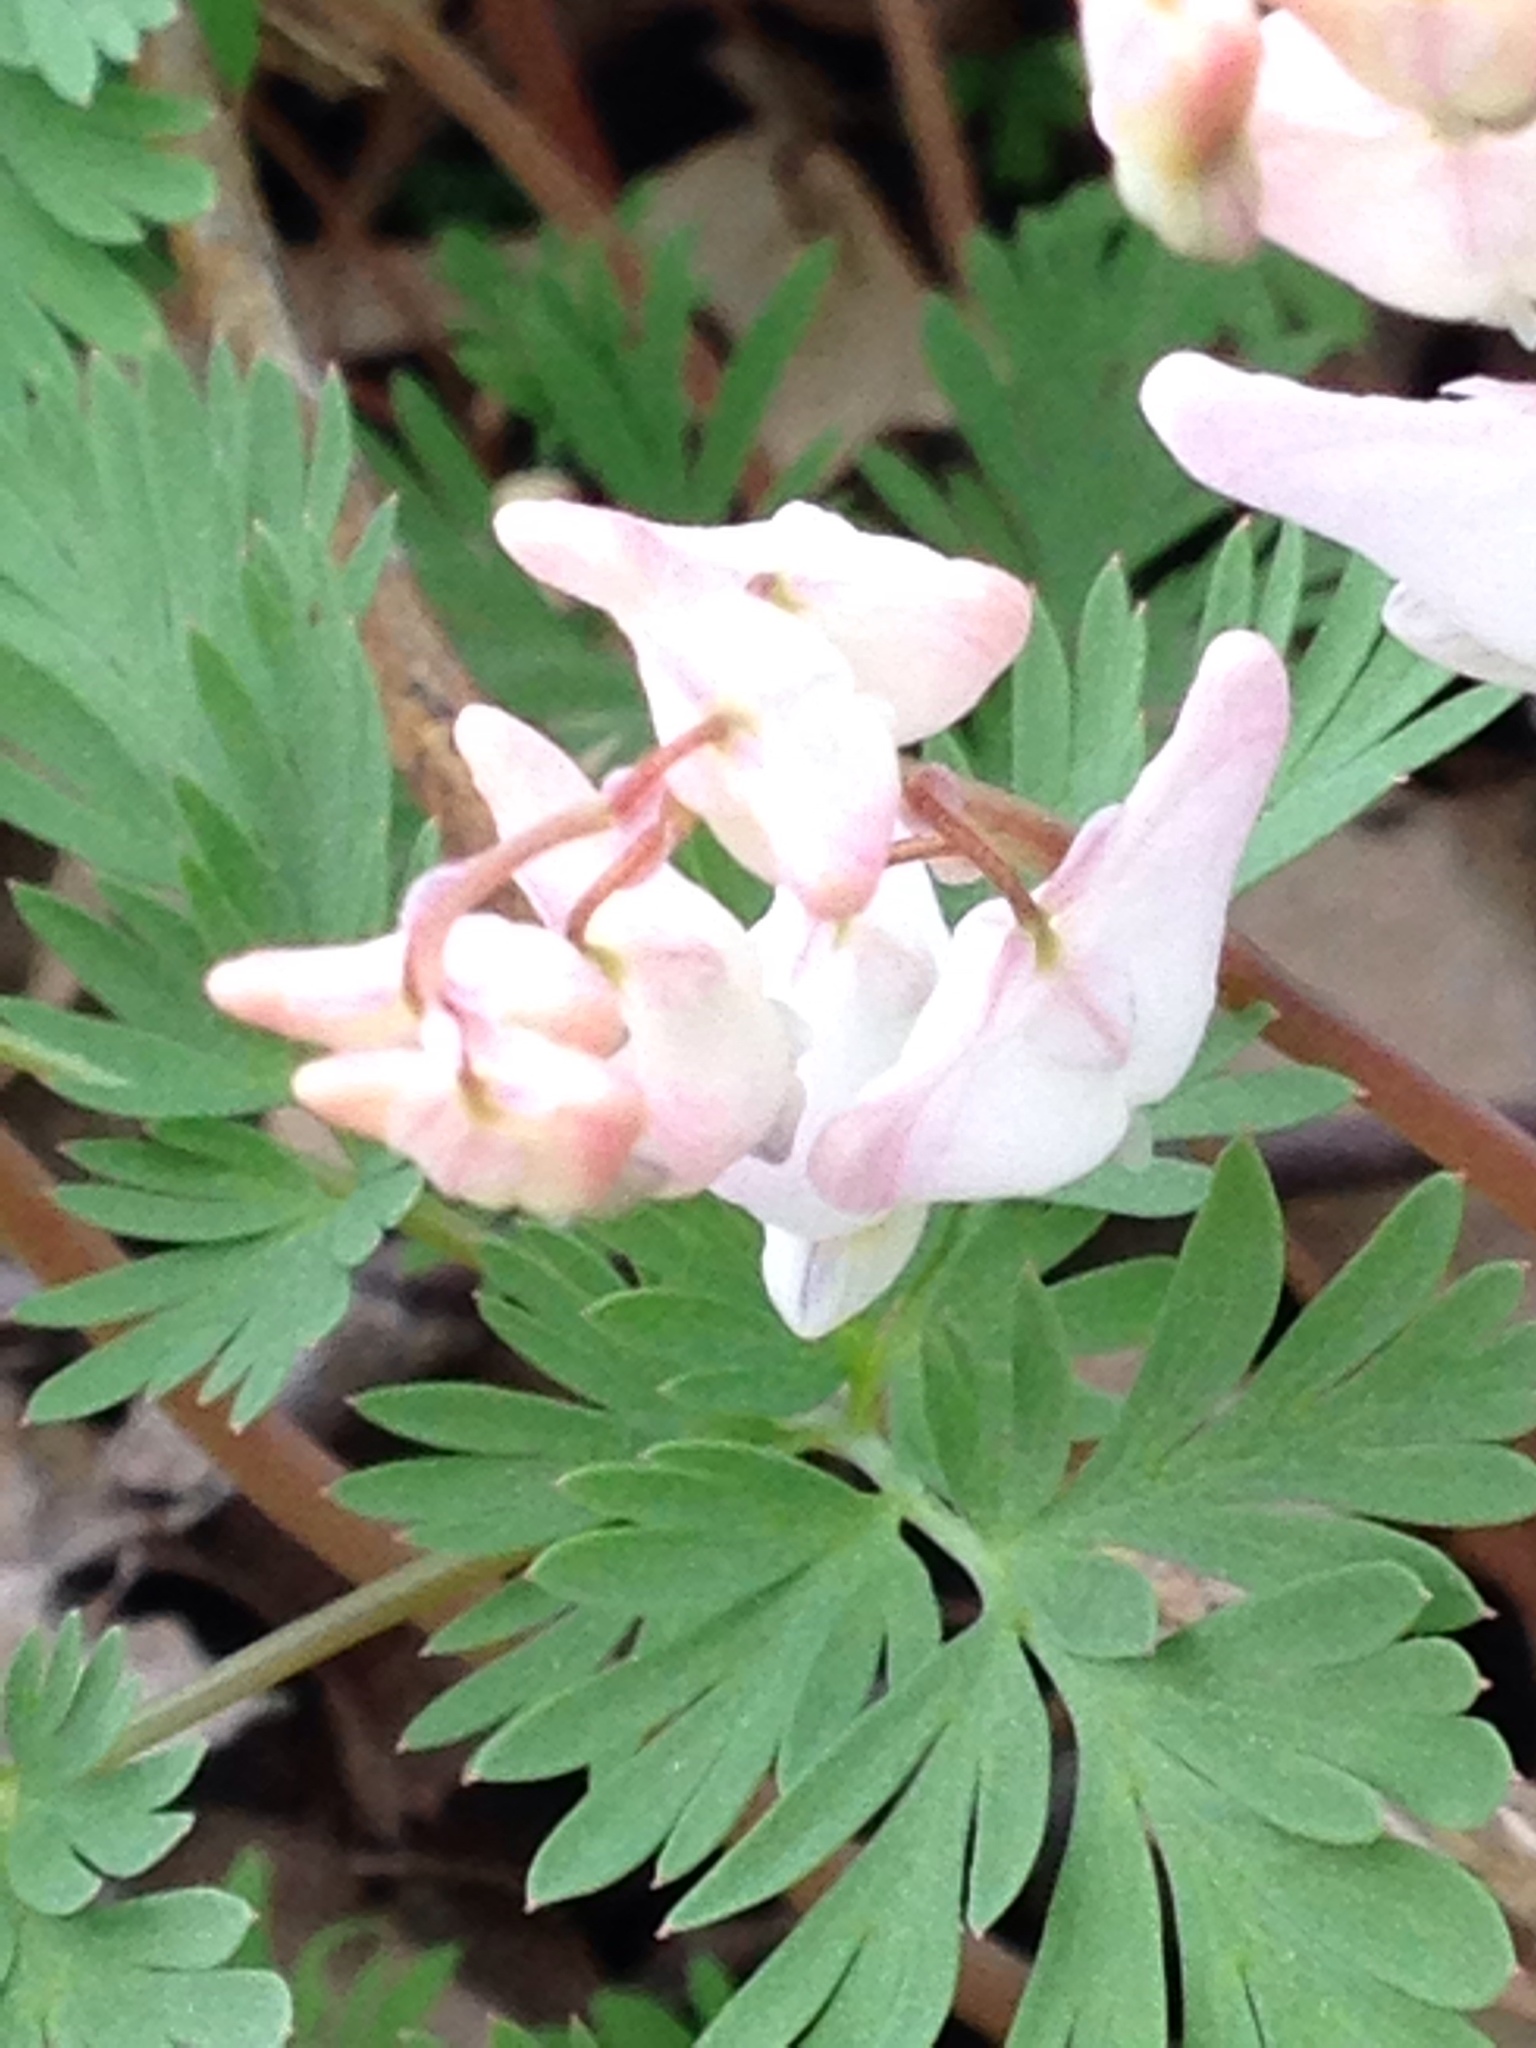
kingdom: Plantae
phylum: Tracheophyta
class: Magnoliopsida
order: Ranunculales
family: Papaveraceae
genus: Dicentra
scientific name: Dicentra cucullaria
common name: Dutchman's breeches
